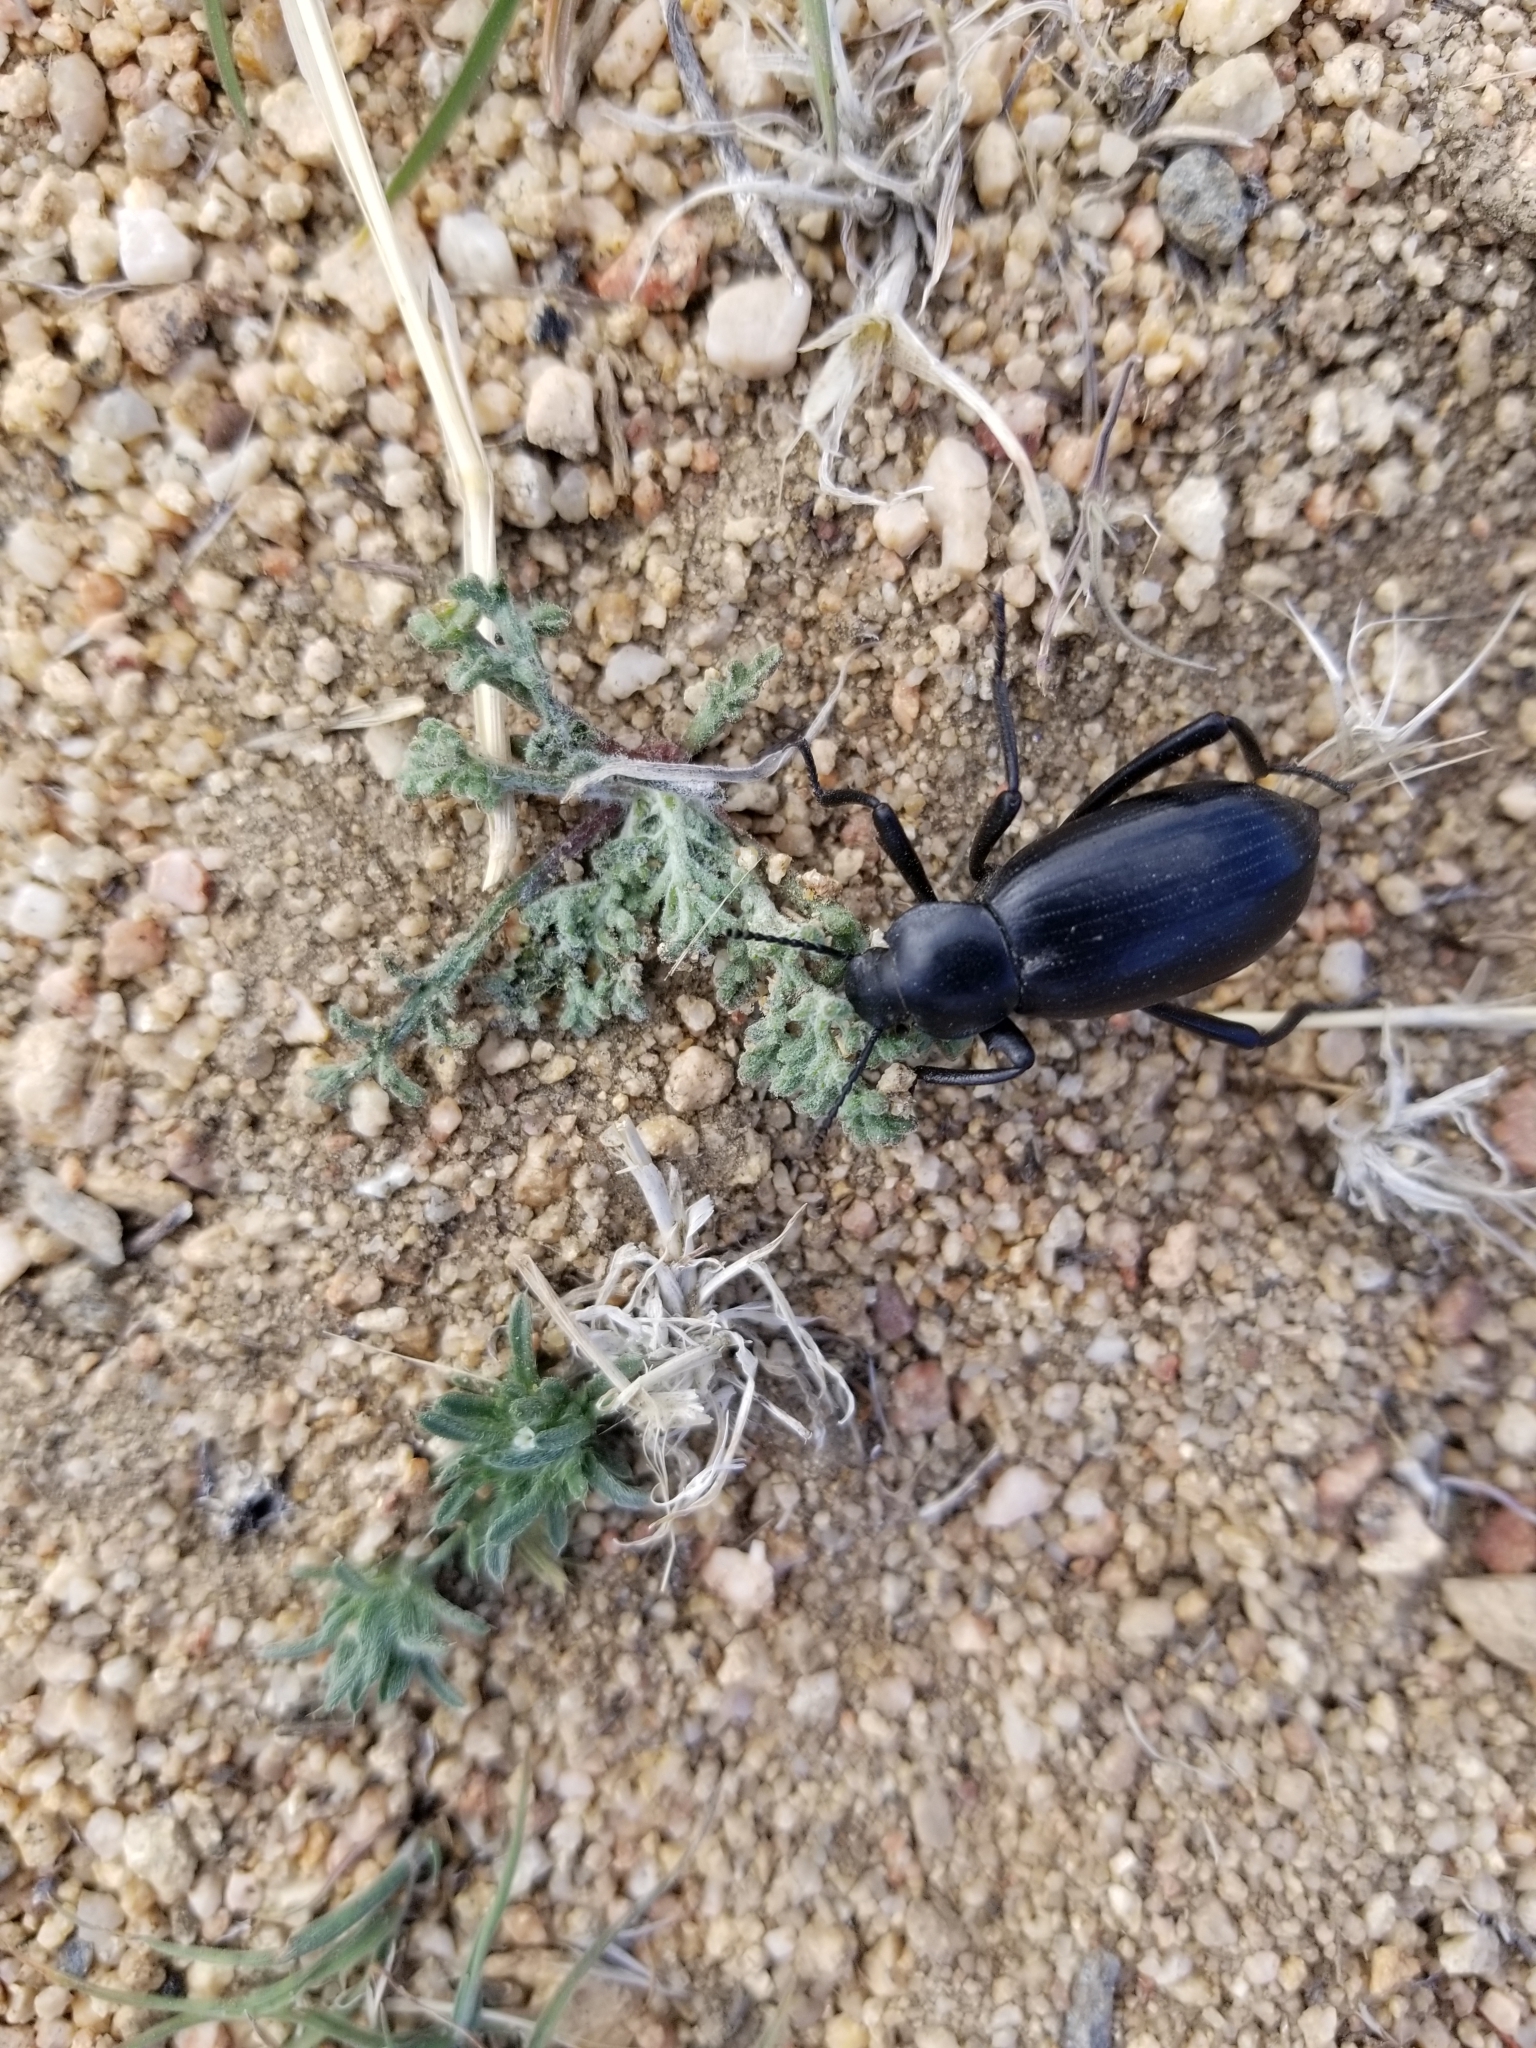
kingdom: Animalia
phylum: Arthropoda
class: Insecta
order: Coleoptera
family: Tenebrionidae
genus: Eleodes
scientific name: Eleodes armata
